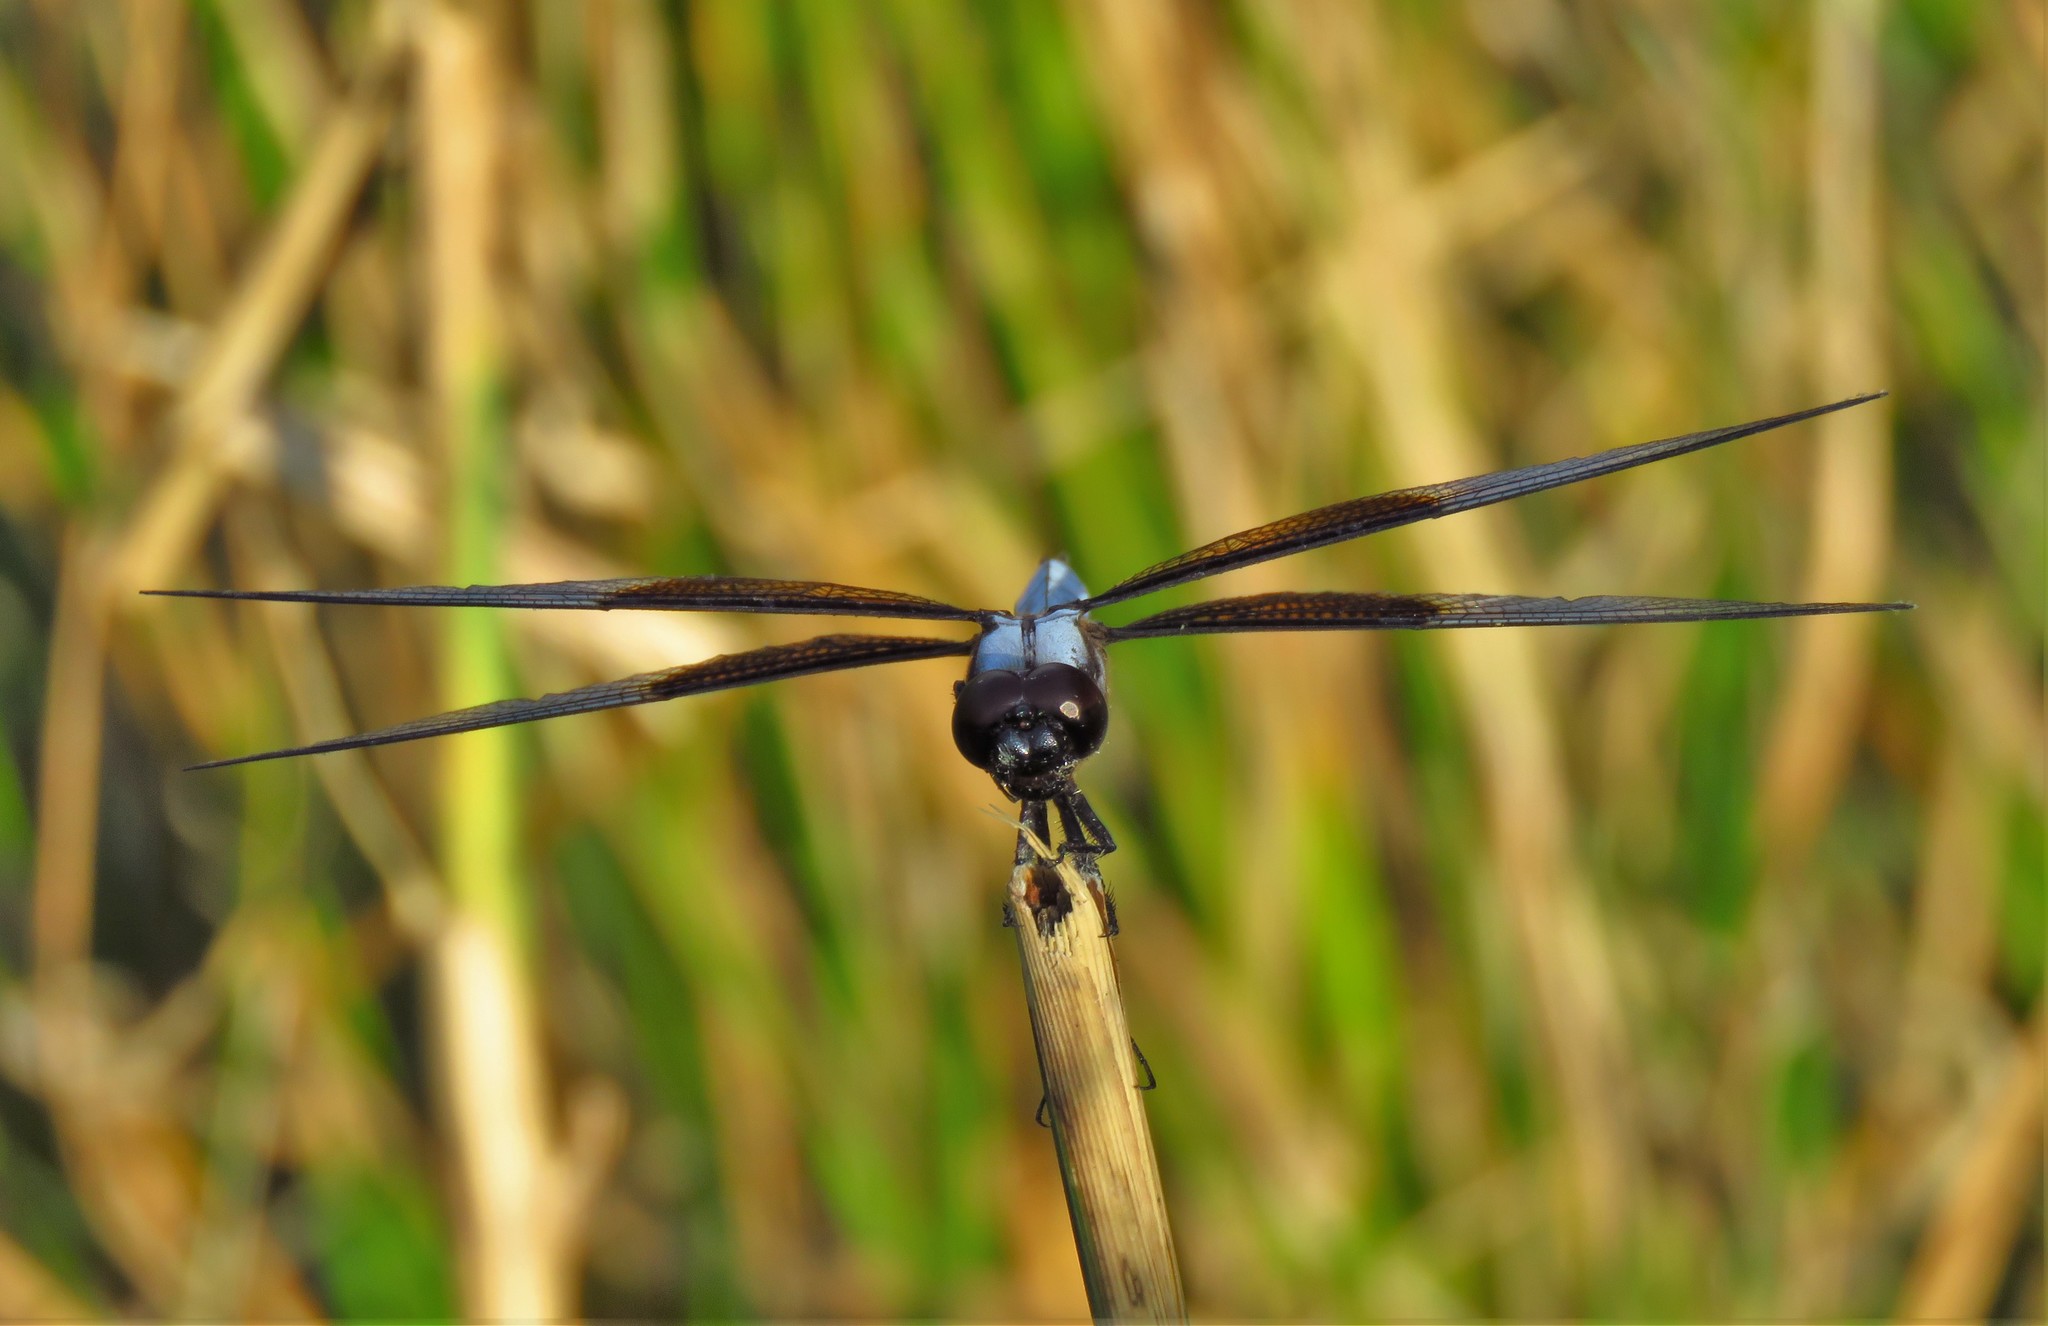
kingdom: Animalia
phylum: Arthropoda
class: Insecta
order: Odonata
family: Libellulidae
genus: Libellula
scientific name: Libellula luctuosa
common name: Widow skimmer
